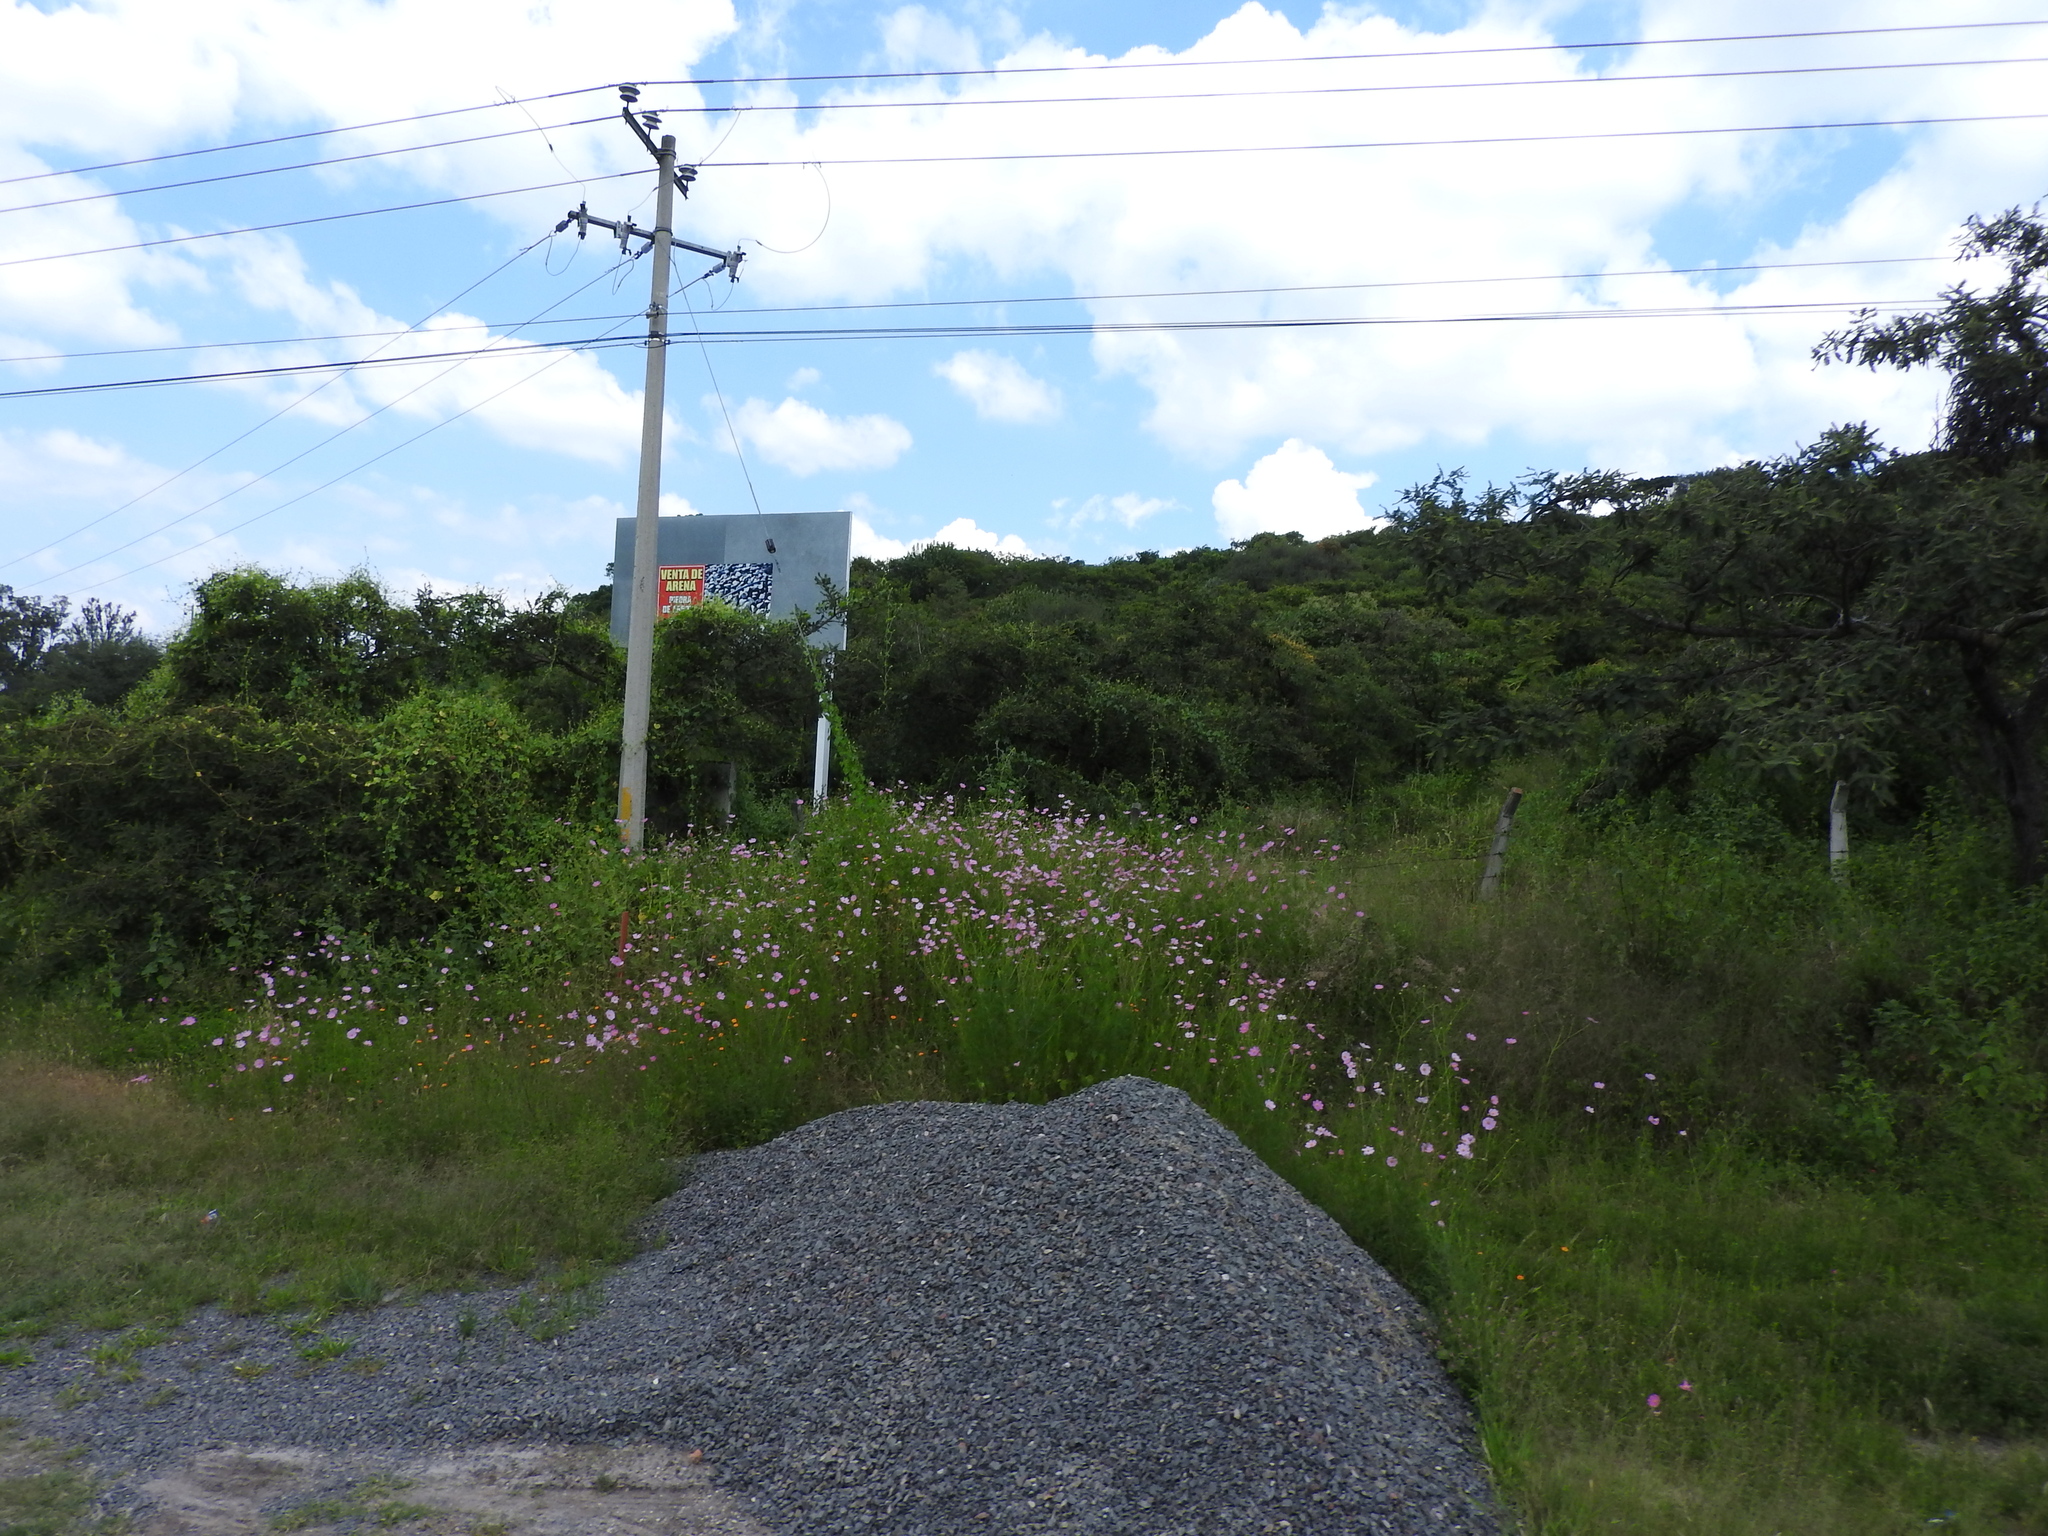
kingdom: Plantae
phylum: Tracheophyta
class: Magnoliopsida
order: Asterales
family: Asteraceae
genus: Cosmos
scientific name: Cosmos bipinnatus
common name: Garden cosmos
